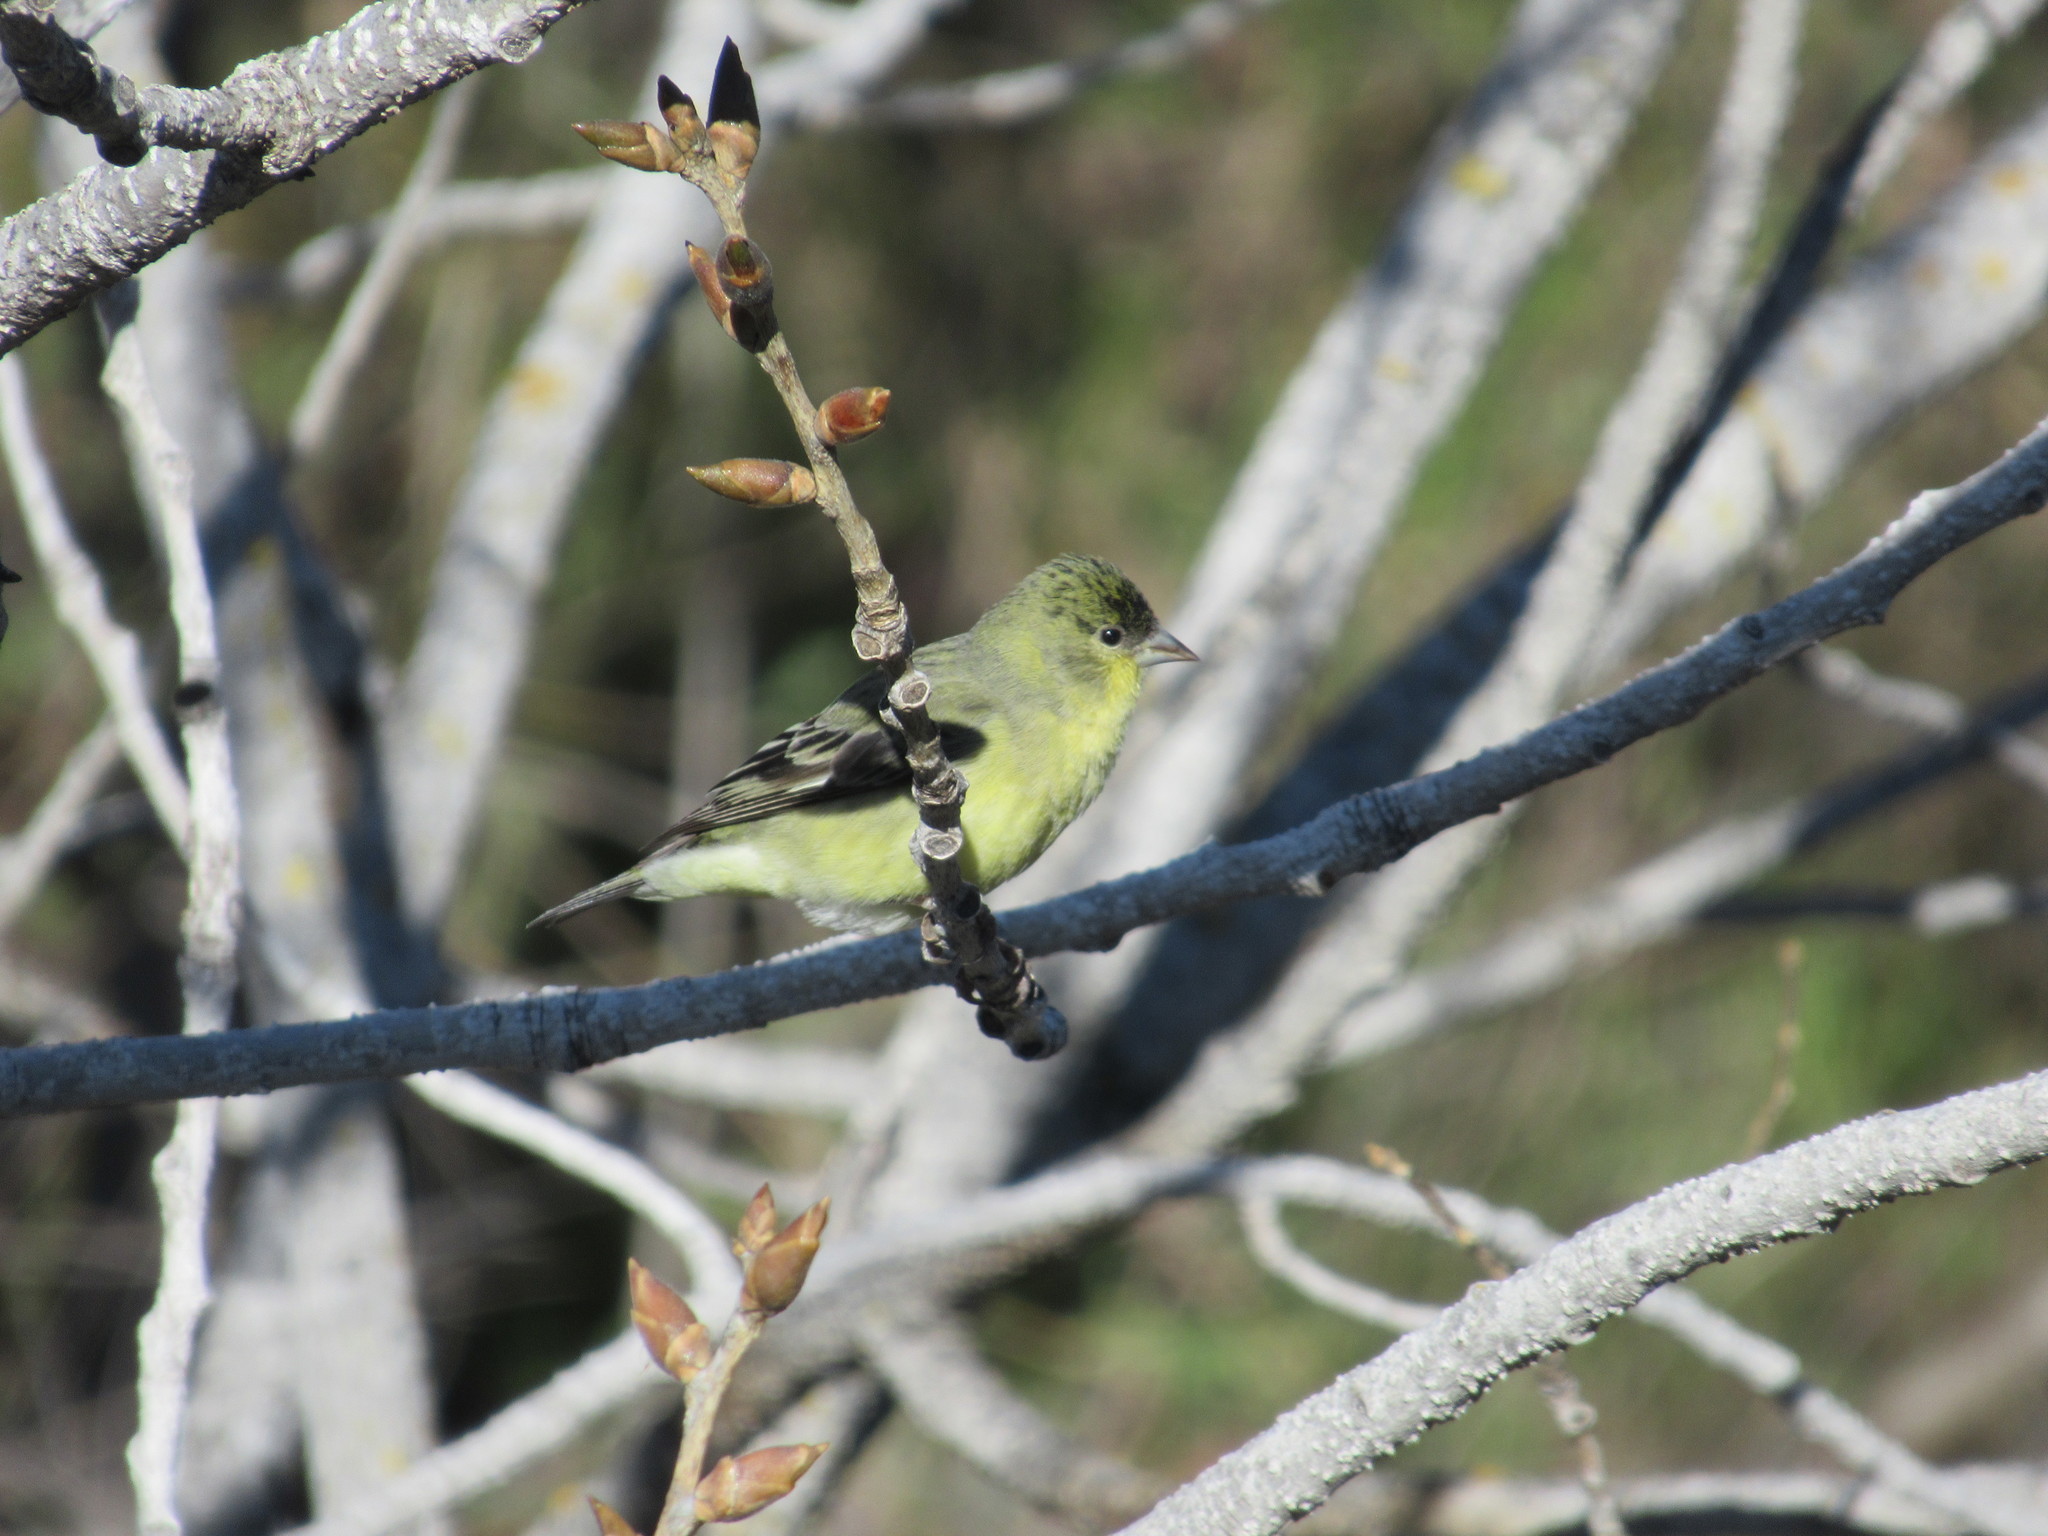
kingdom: Animalia
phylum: Chordata
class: Aves
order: Passeriformes
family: Fringillidae
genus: Spinus
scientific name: Spinus psaltria
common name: Lesser goldfinch
